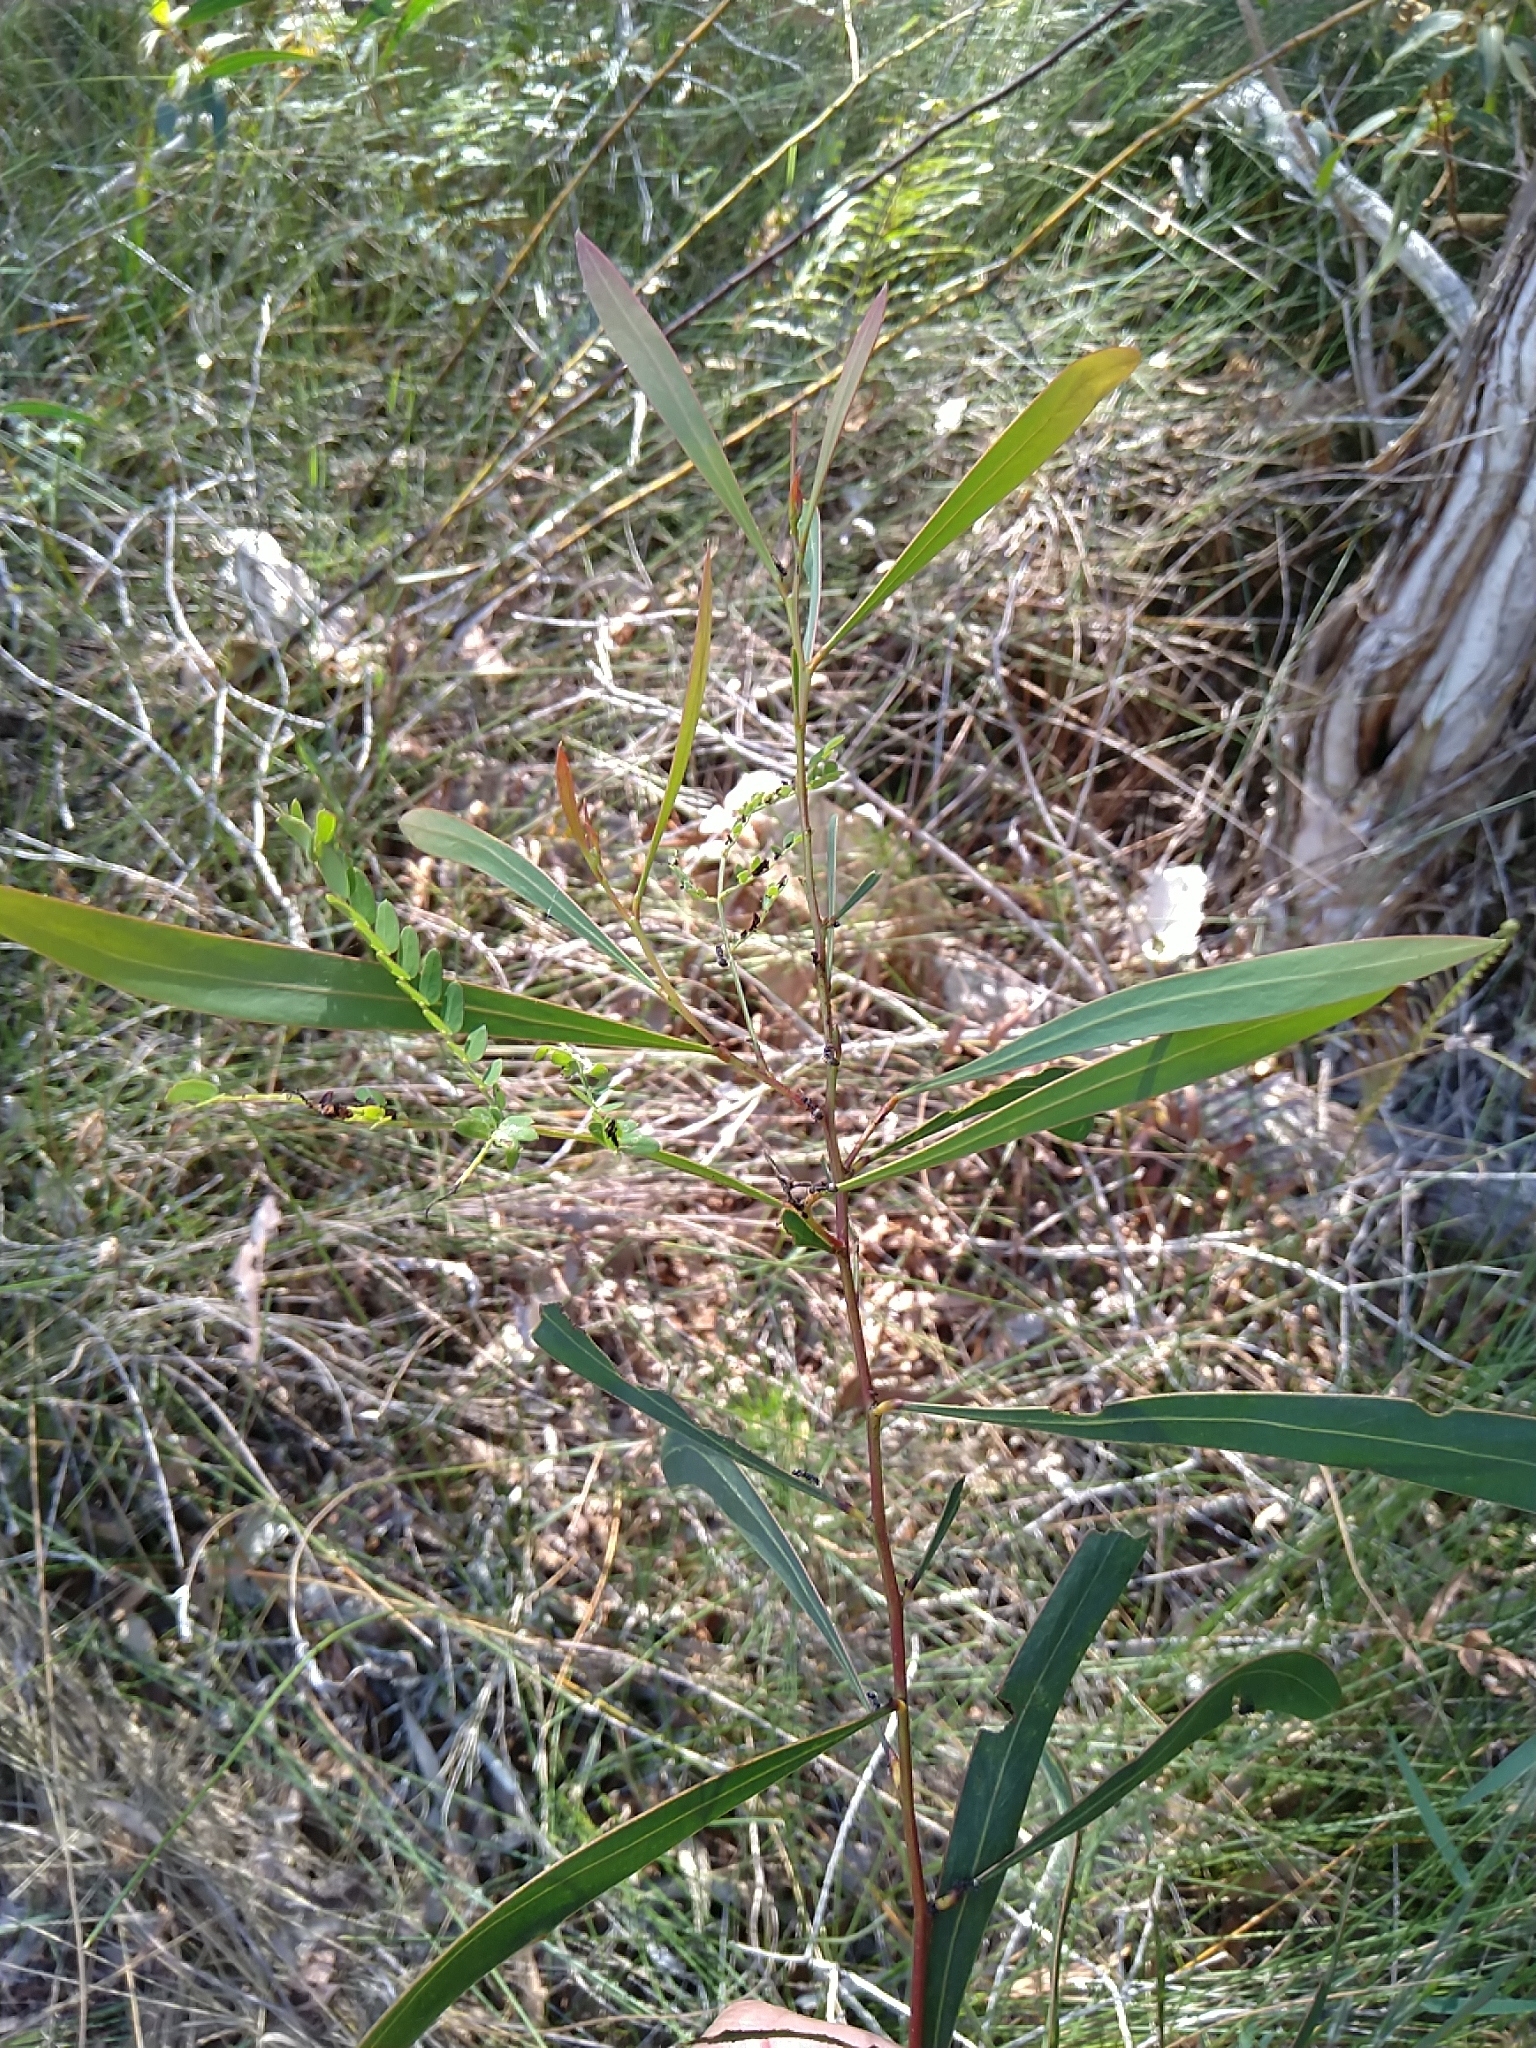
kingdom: Plantae
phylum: Tracheophyta
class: Magnoliopsida
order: Fabales
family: Fabaceae
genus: Acacia
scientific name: Acacia attenuata
